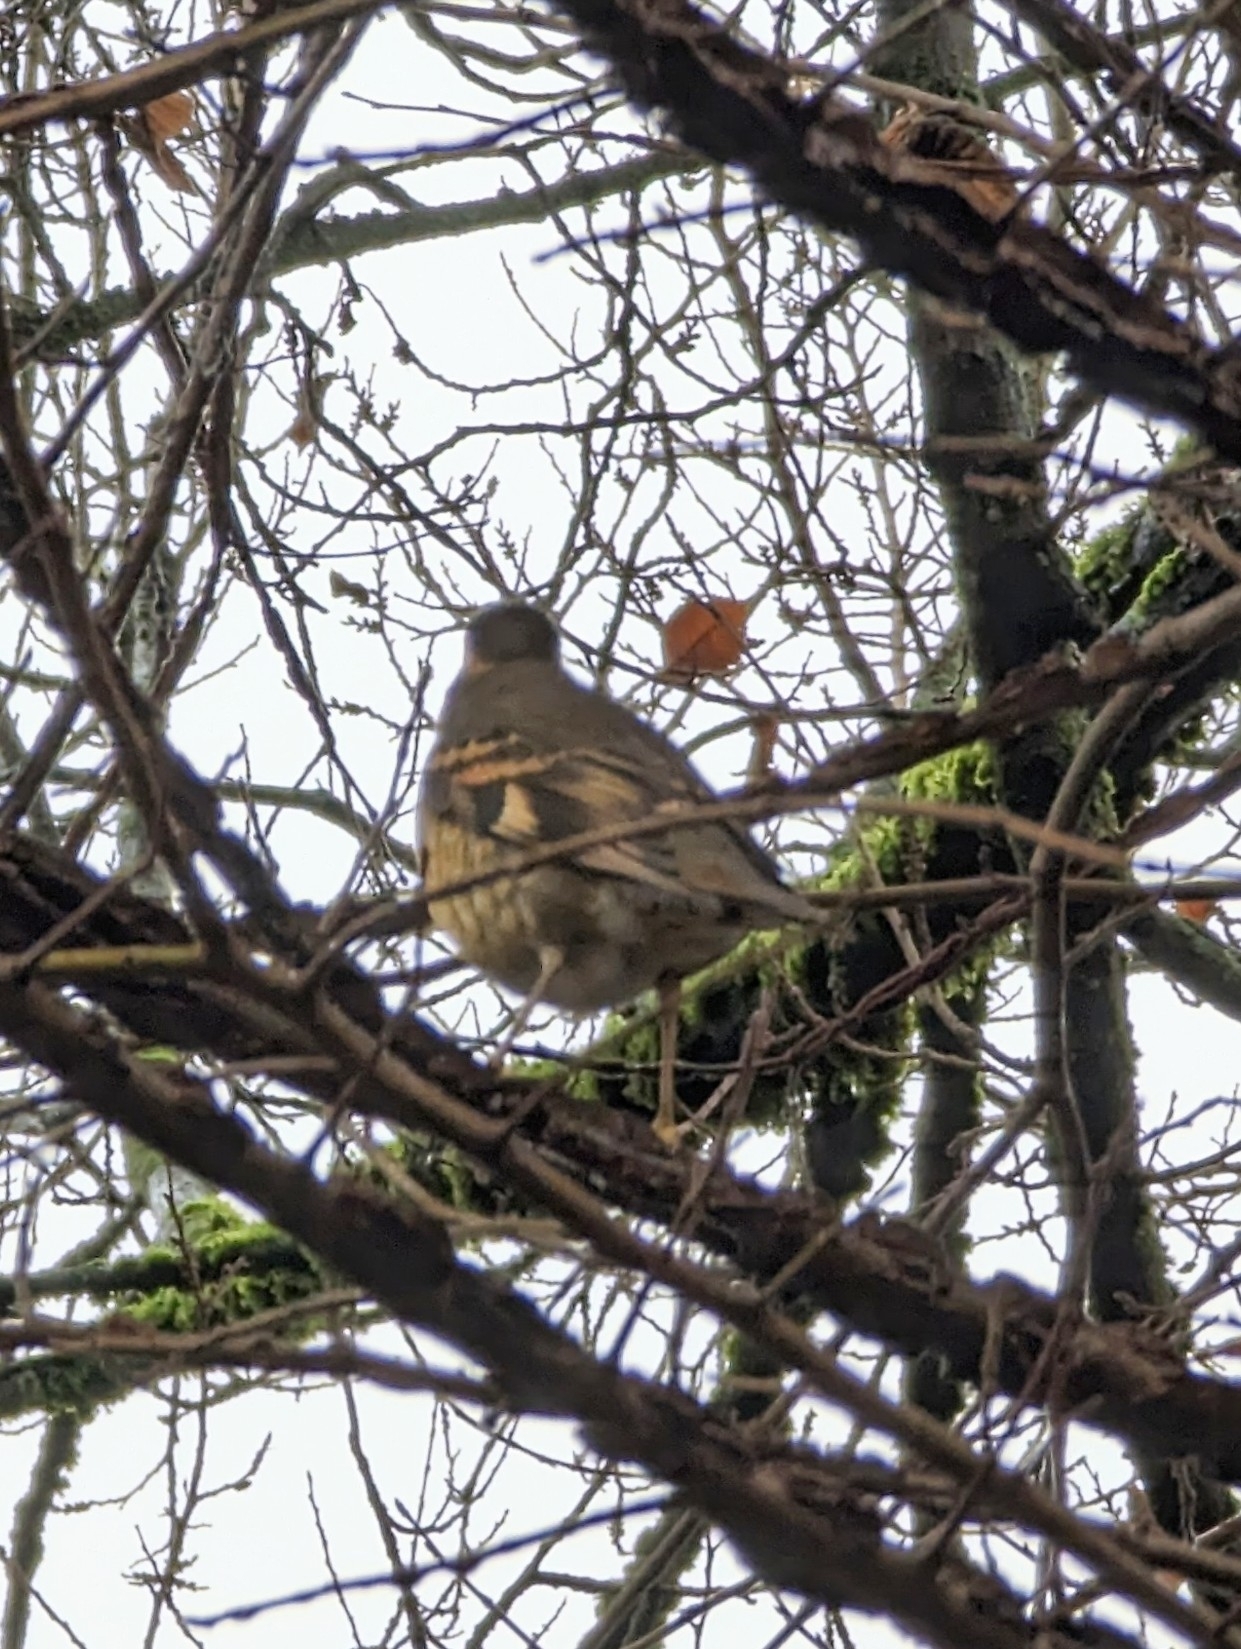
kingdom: Animalia
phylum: Chordata
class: Aves
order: Passeriformes
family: Turdidae
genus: Ixoreus
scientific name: Ixoreus naevius
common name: Varied thrush
